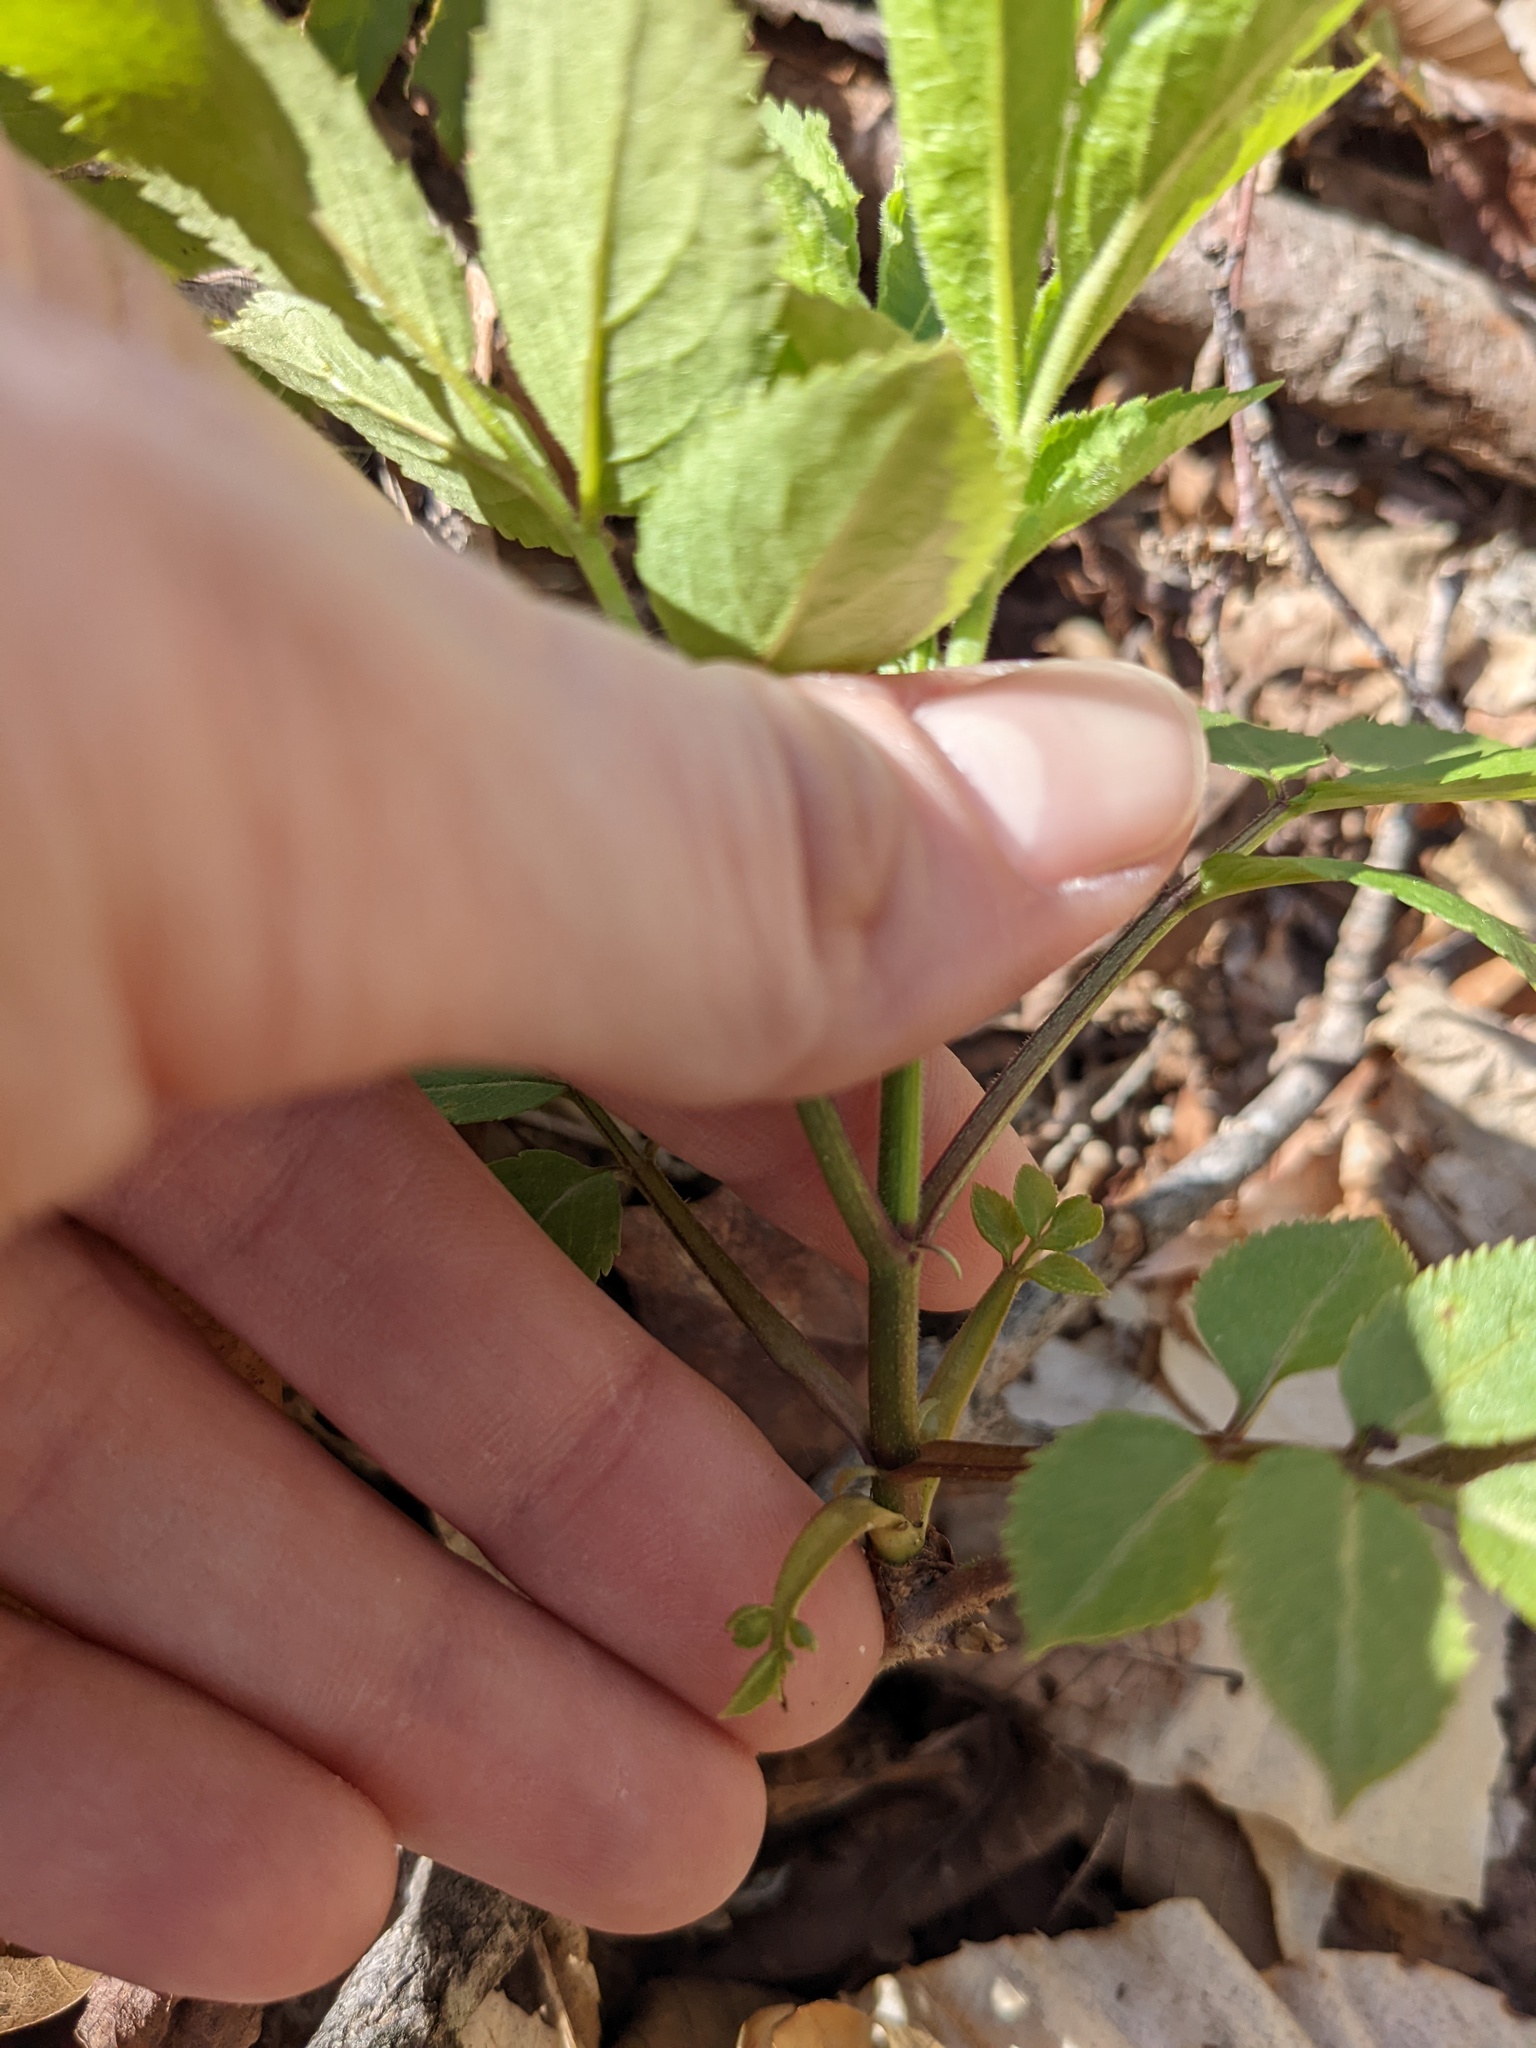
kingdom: Plantae
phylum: Tracheophyta
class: Magnoliopsida
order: Dipsacales
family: Viburnaceae
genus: Sambucus
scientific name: Sambucus racemosa
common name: Red-berried elder
